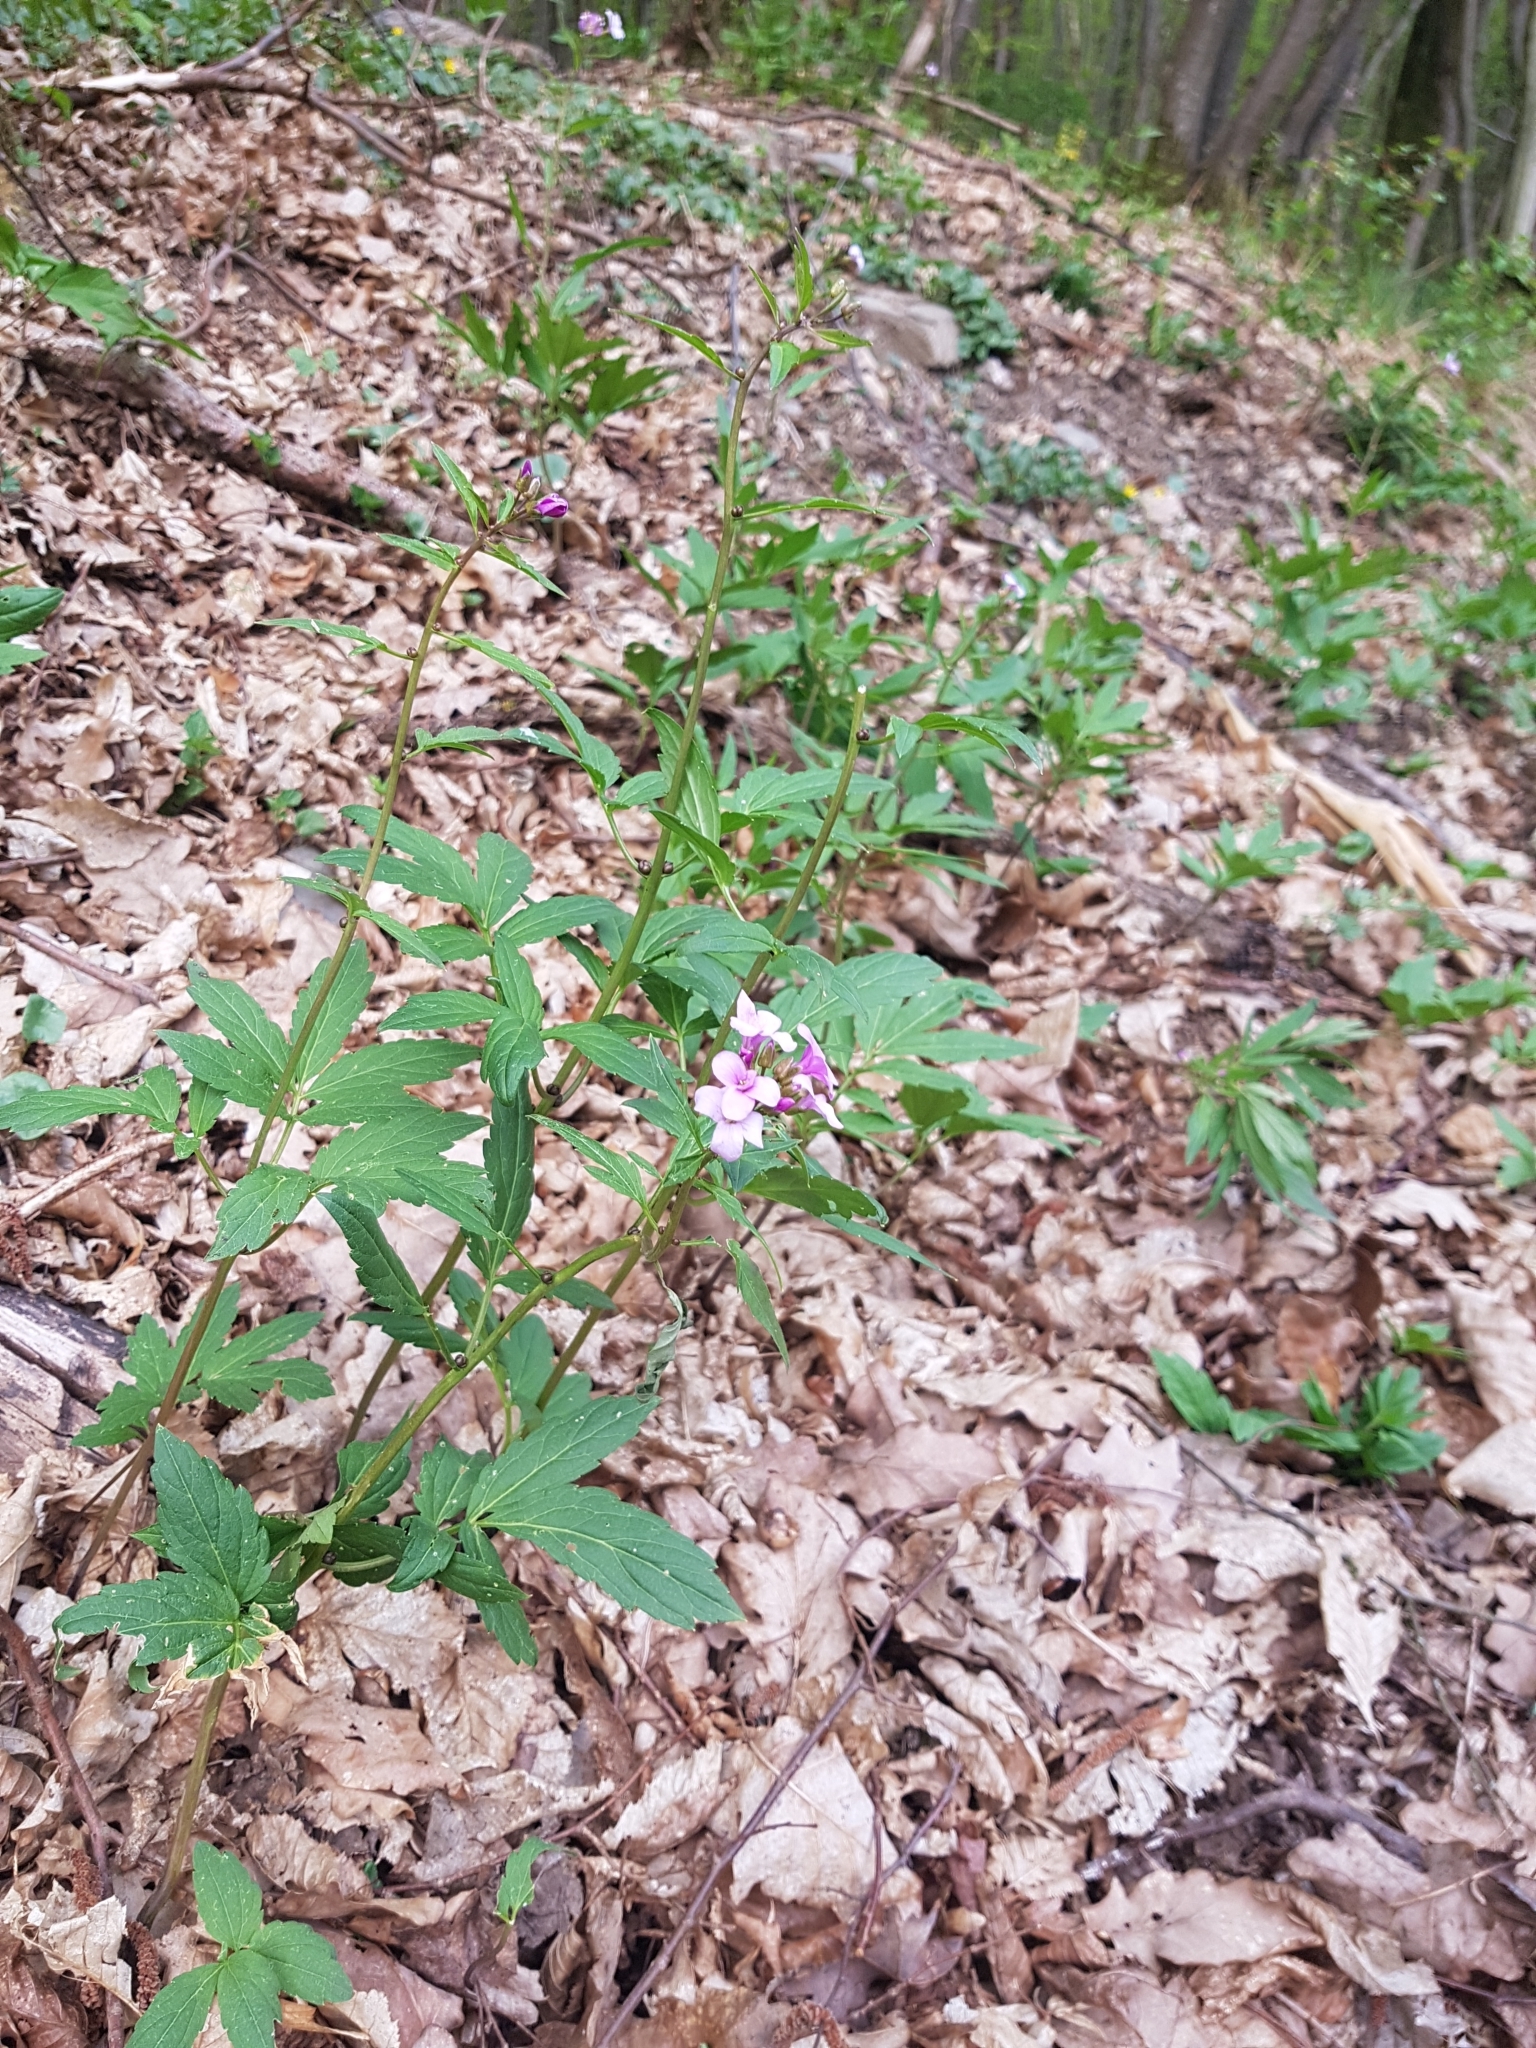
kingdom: Plantae
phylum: Tracheophyta
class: Magnoliopsida
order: Brassicales
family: Brassicaceae
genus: Cardamine
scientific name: Cardamine bulbifera
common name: Coralroot bittercress
